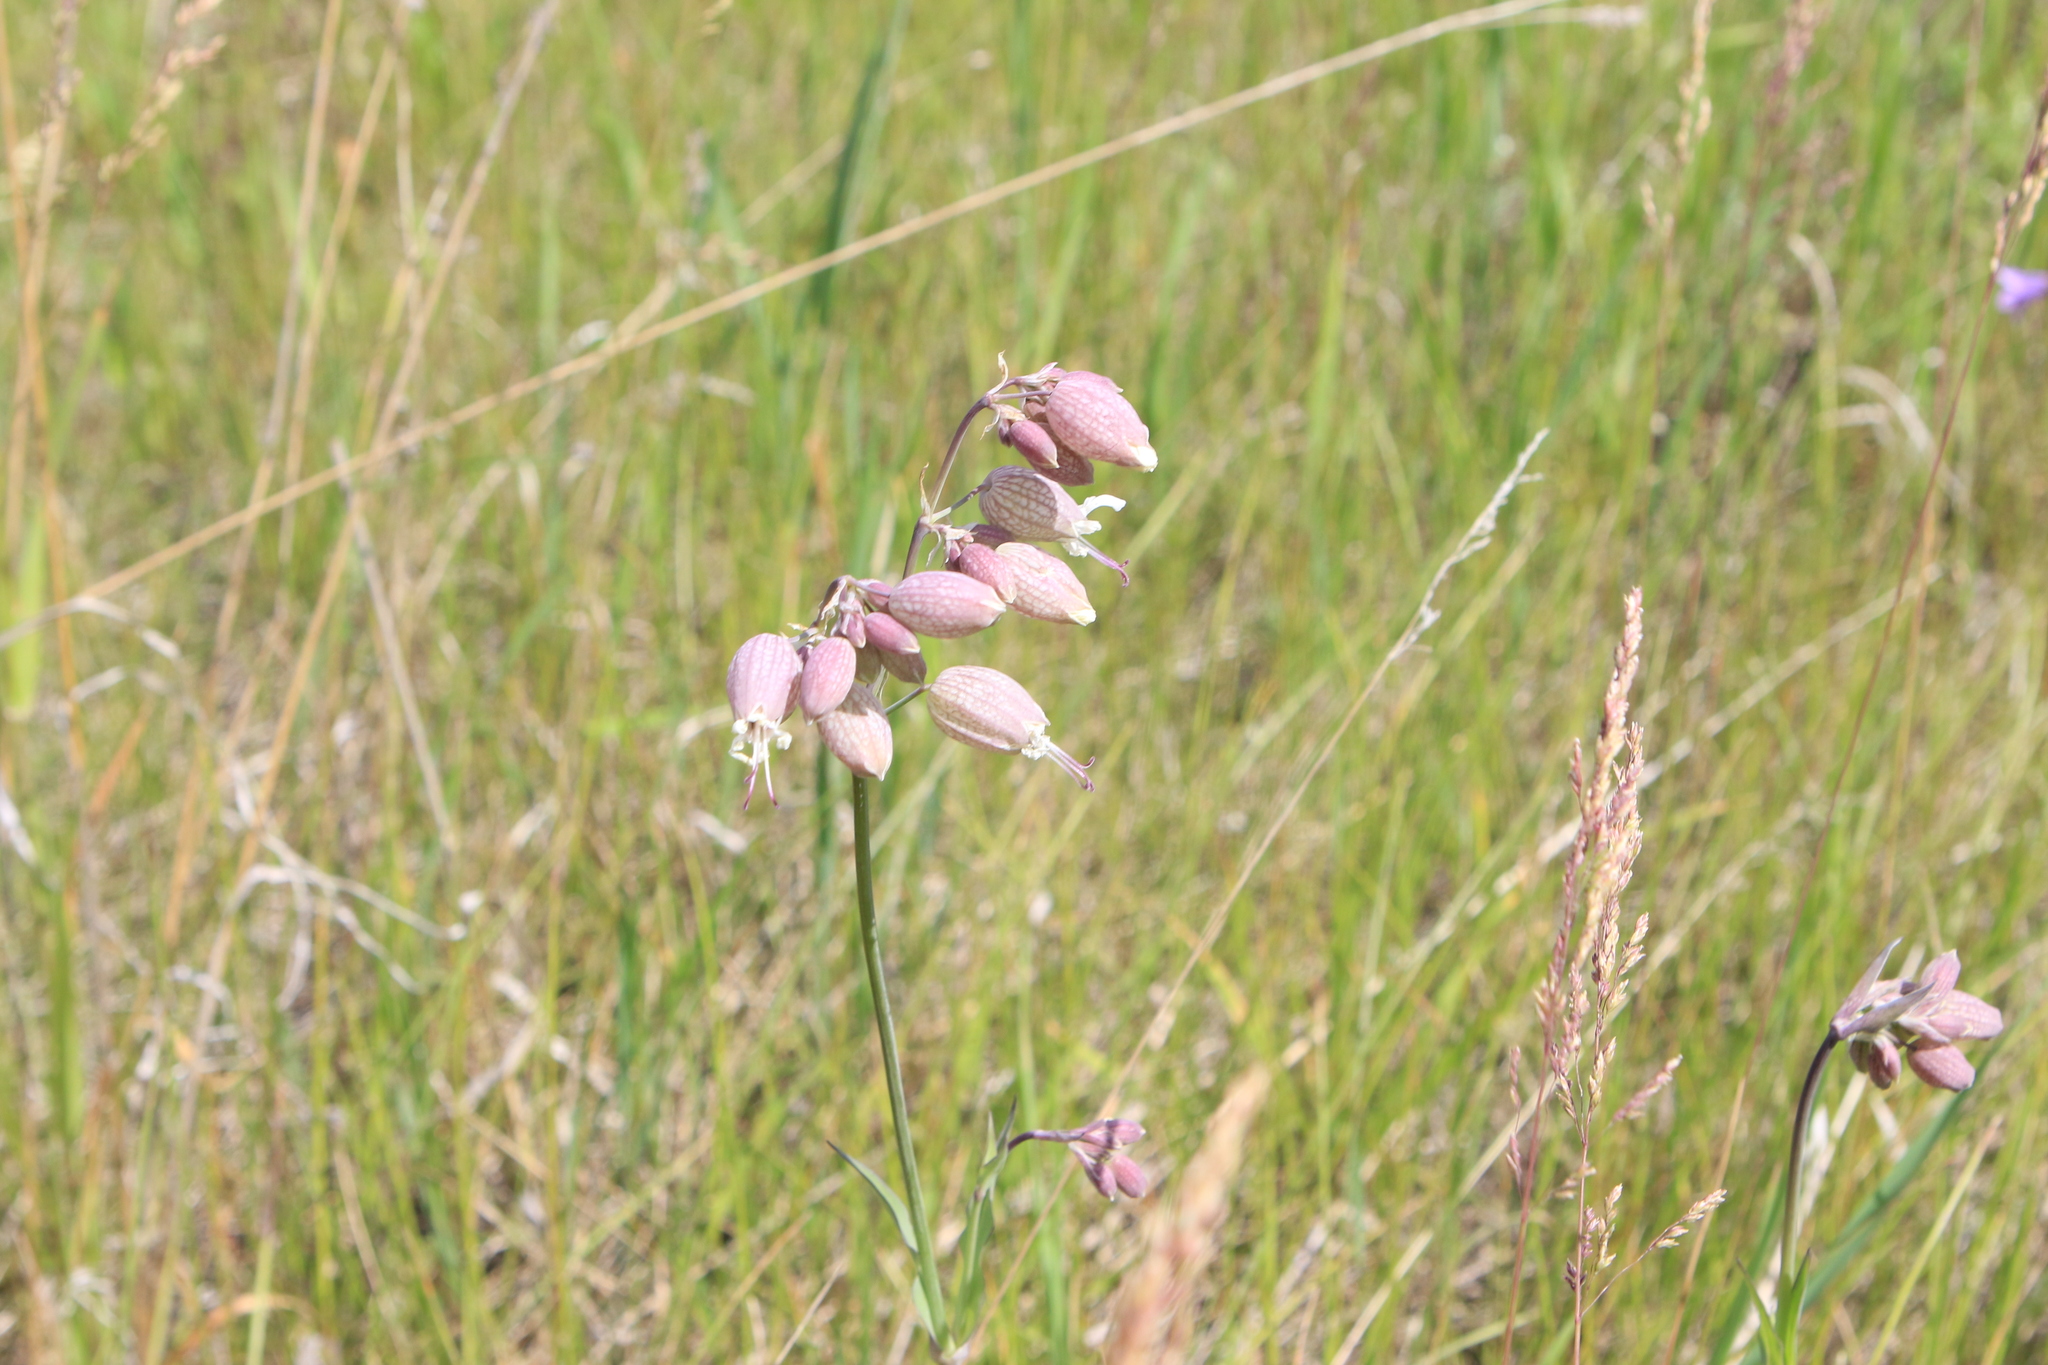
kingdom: Plantae
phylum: Tracheophyta
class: Magnoliopsida
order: Caryophyllales
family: Caryophyllaceae
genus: Silene
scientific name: Silene vulgaris
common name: Bladder campion
